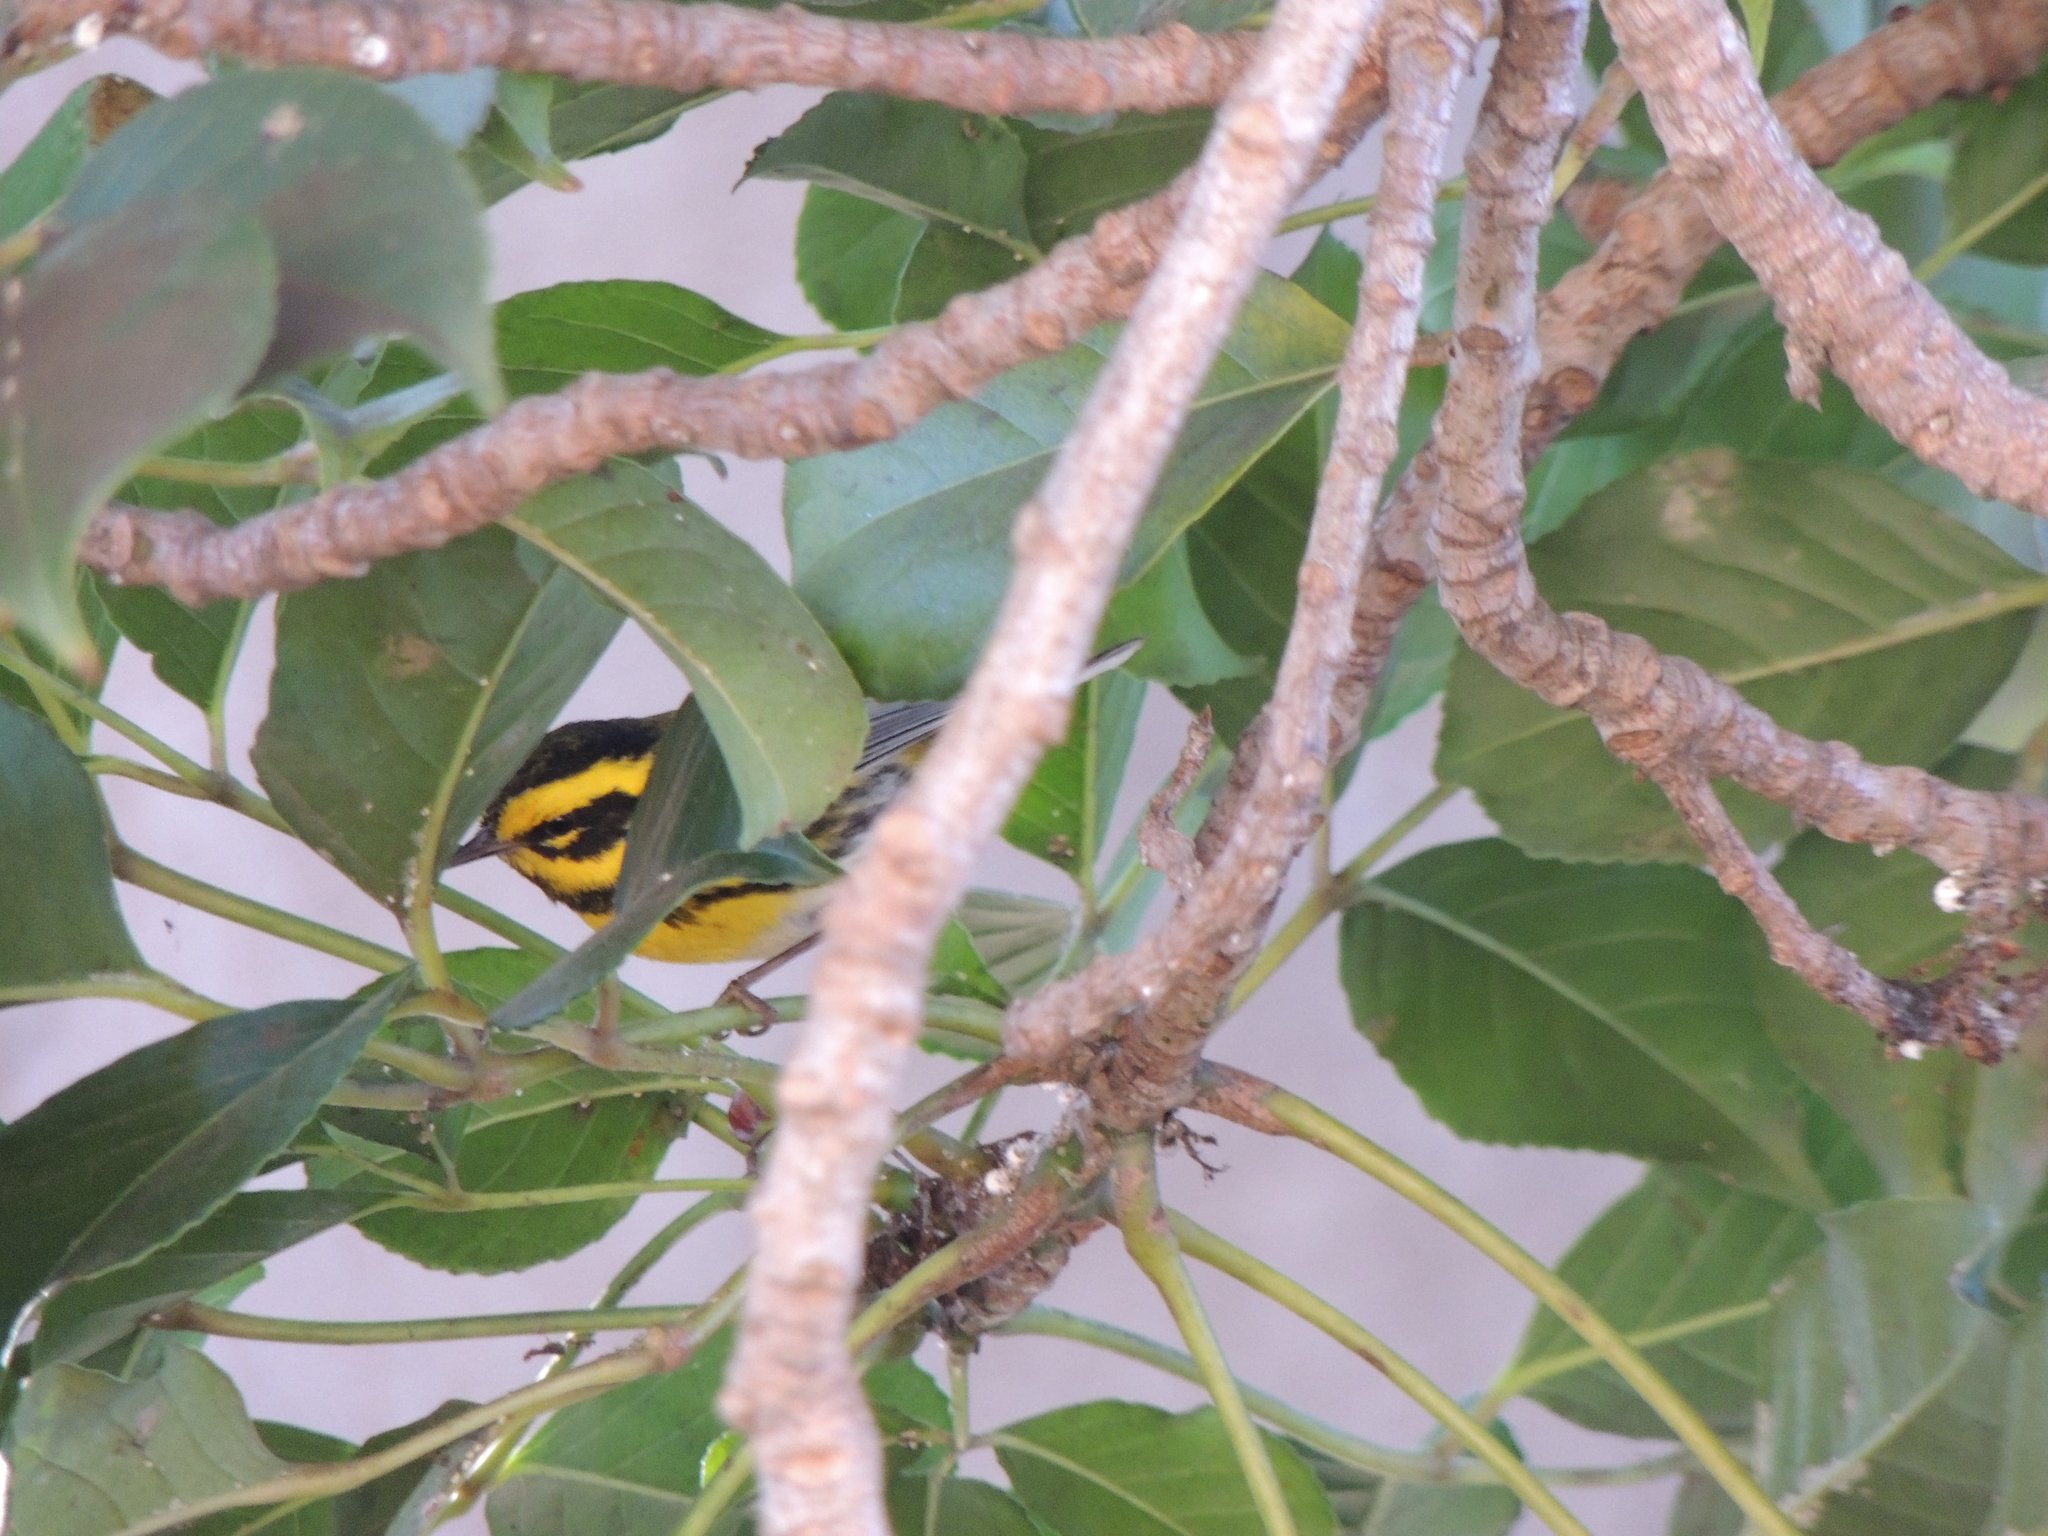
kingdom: Animalia
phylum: Chordata
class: Aves
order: Passeriformes
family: Parulidae
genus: Setophaga
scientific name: Setophaga townsendi
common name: Townsend's warbler
